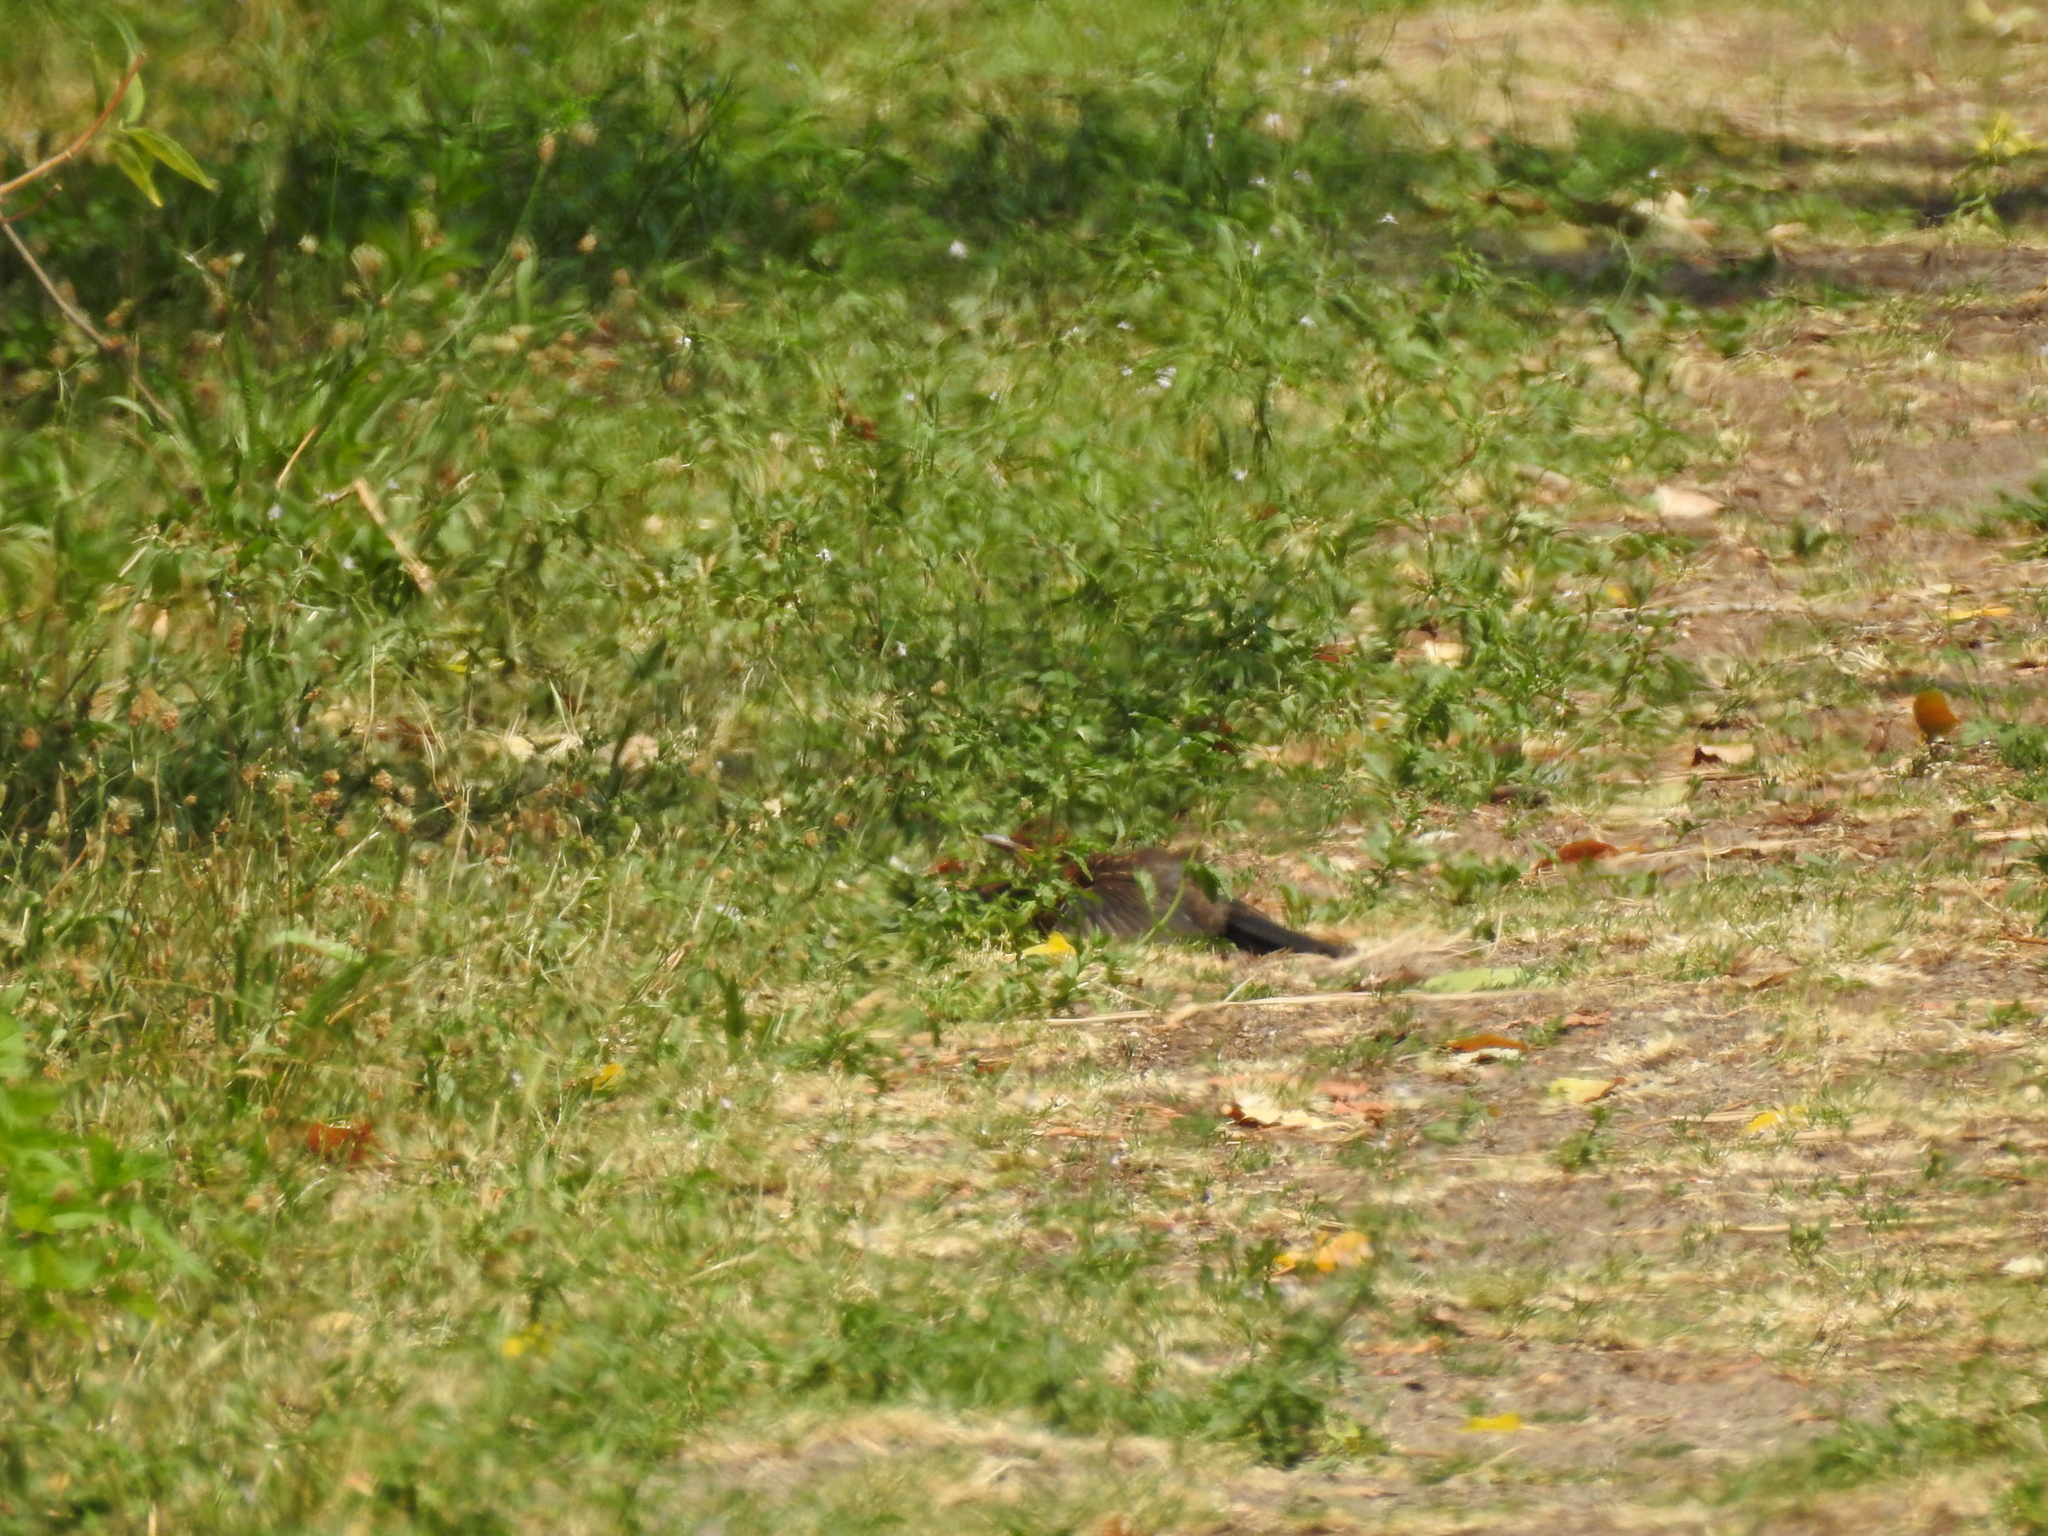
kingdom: Animalia
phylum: Chordata
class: Aves
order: Passeriformes
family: Turdidae
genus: Turdus
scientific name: Turdus merula
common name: Common blackbird
